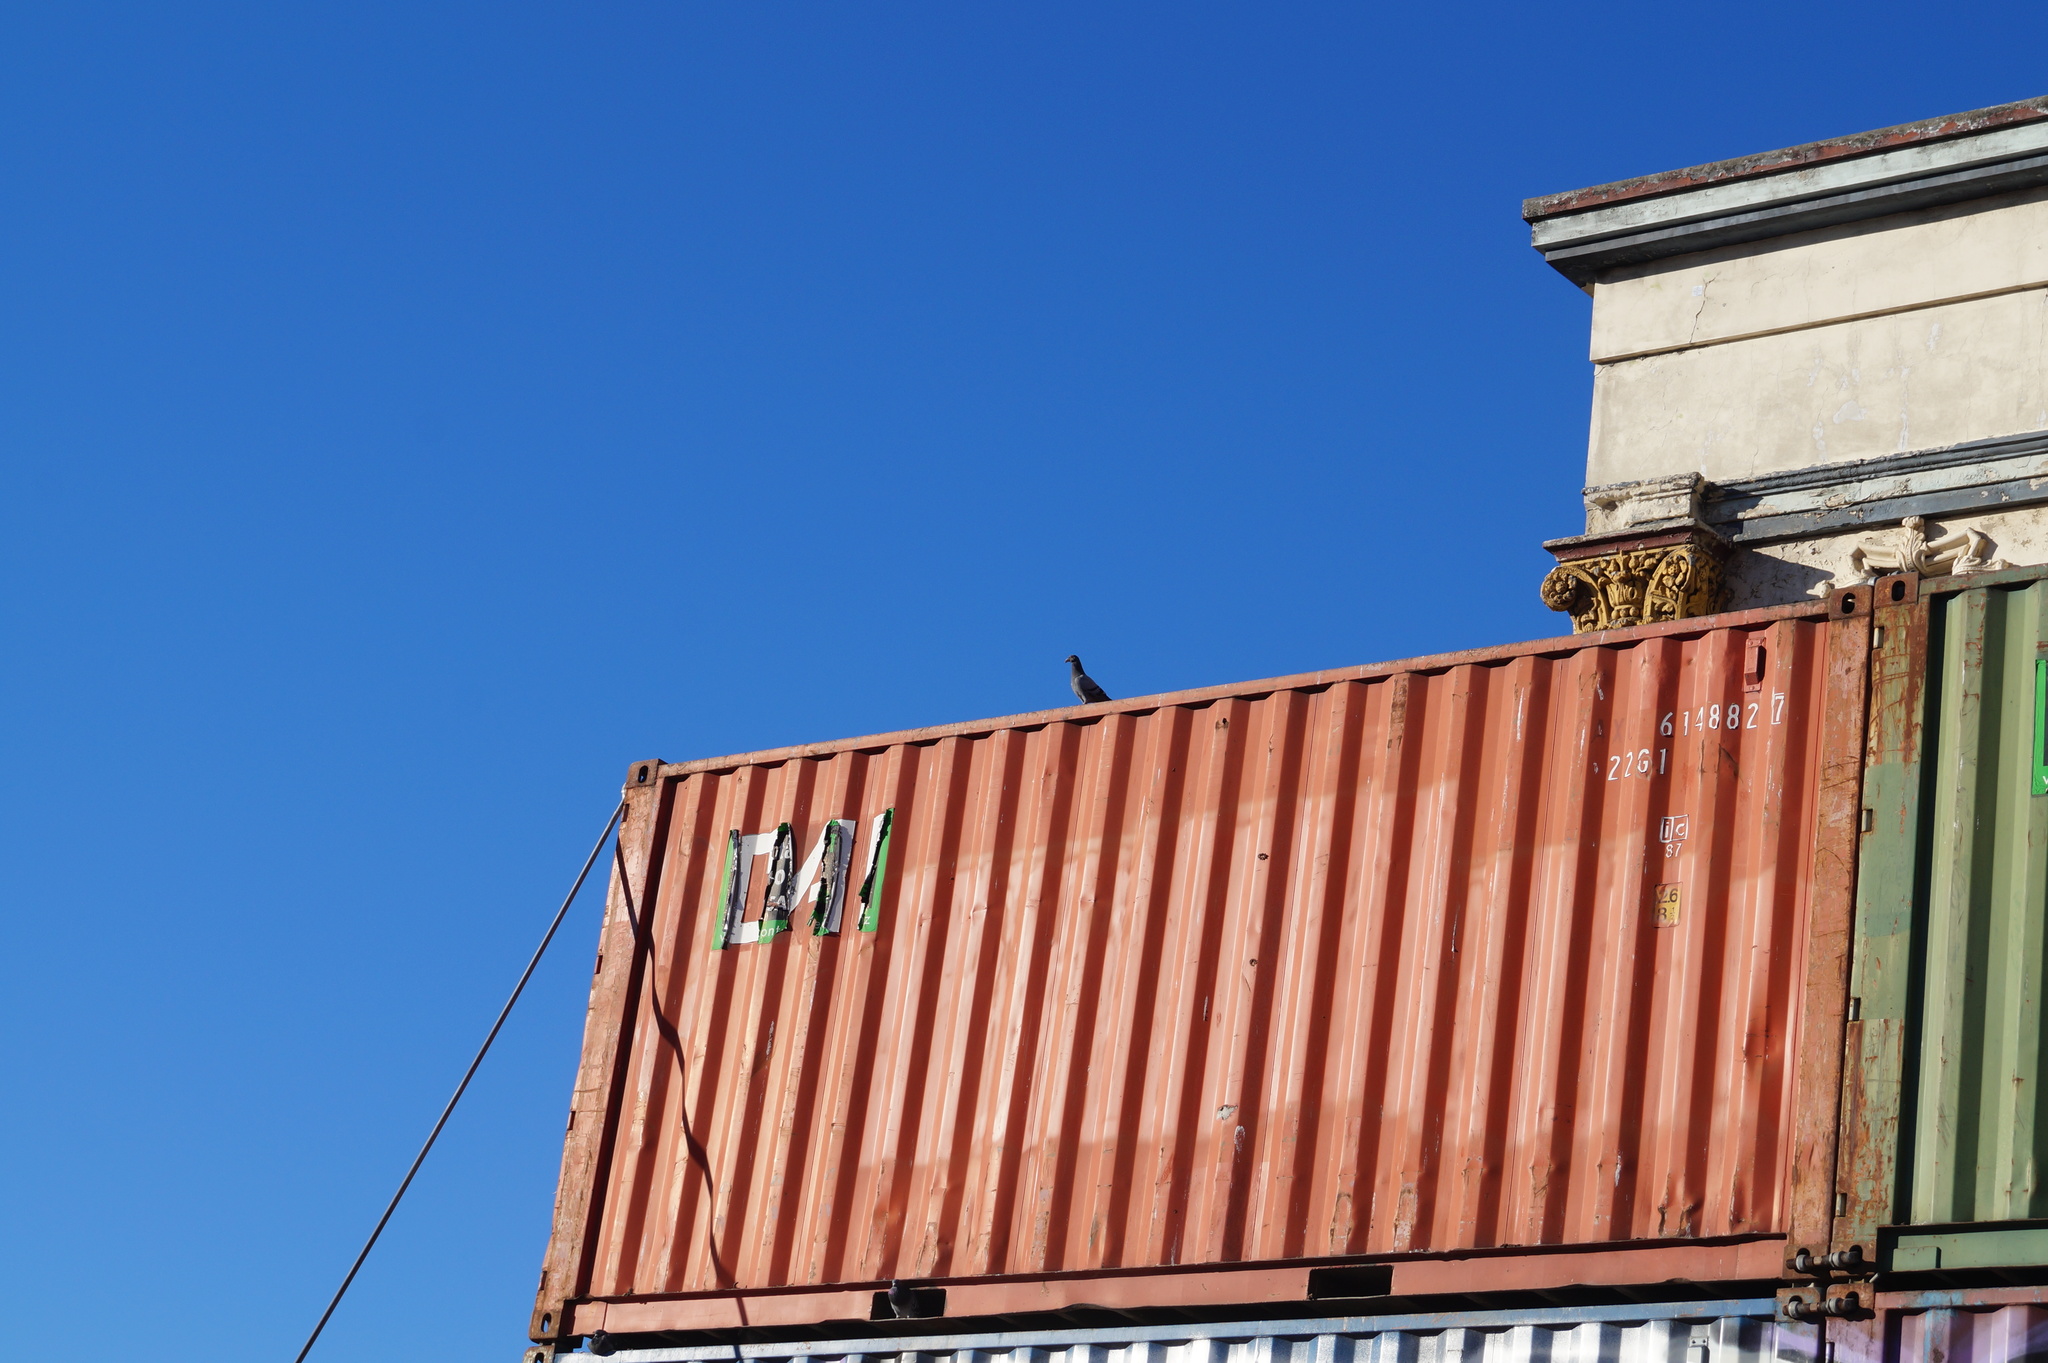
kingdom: Animalia
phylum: Chordata
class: Aves
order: Columbiformes
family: Columbidae
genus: Columba
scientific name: Columba livia
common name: Rock pigeon
